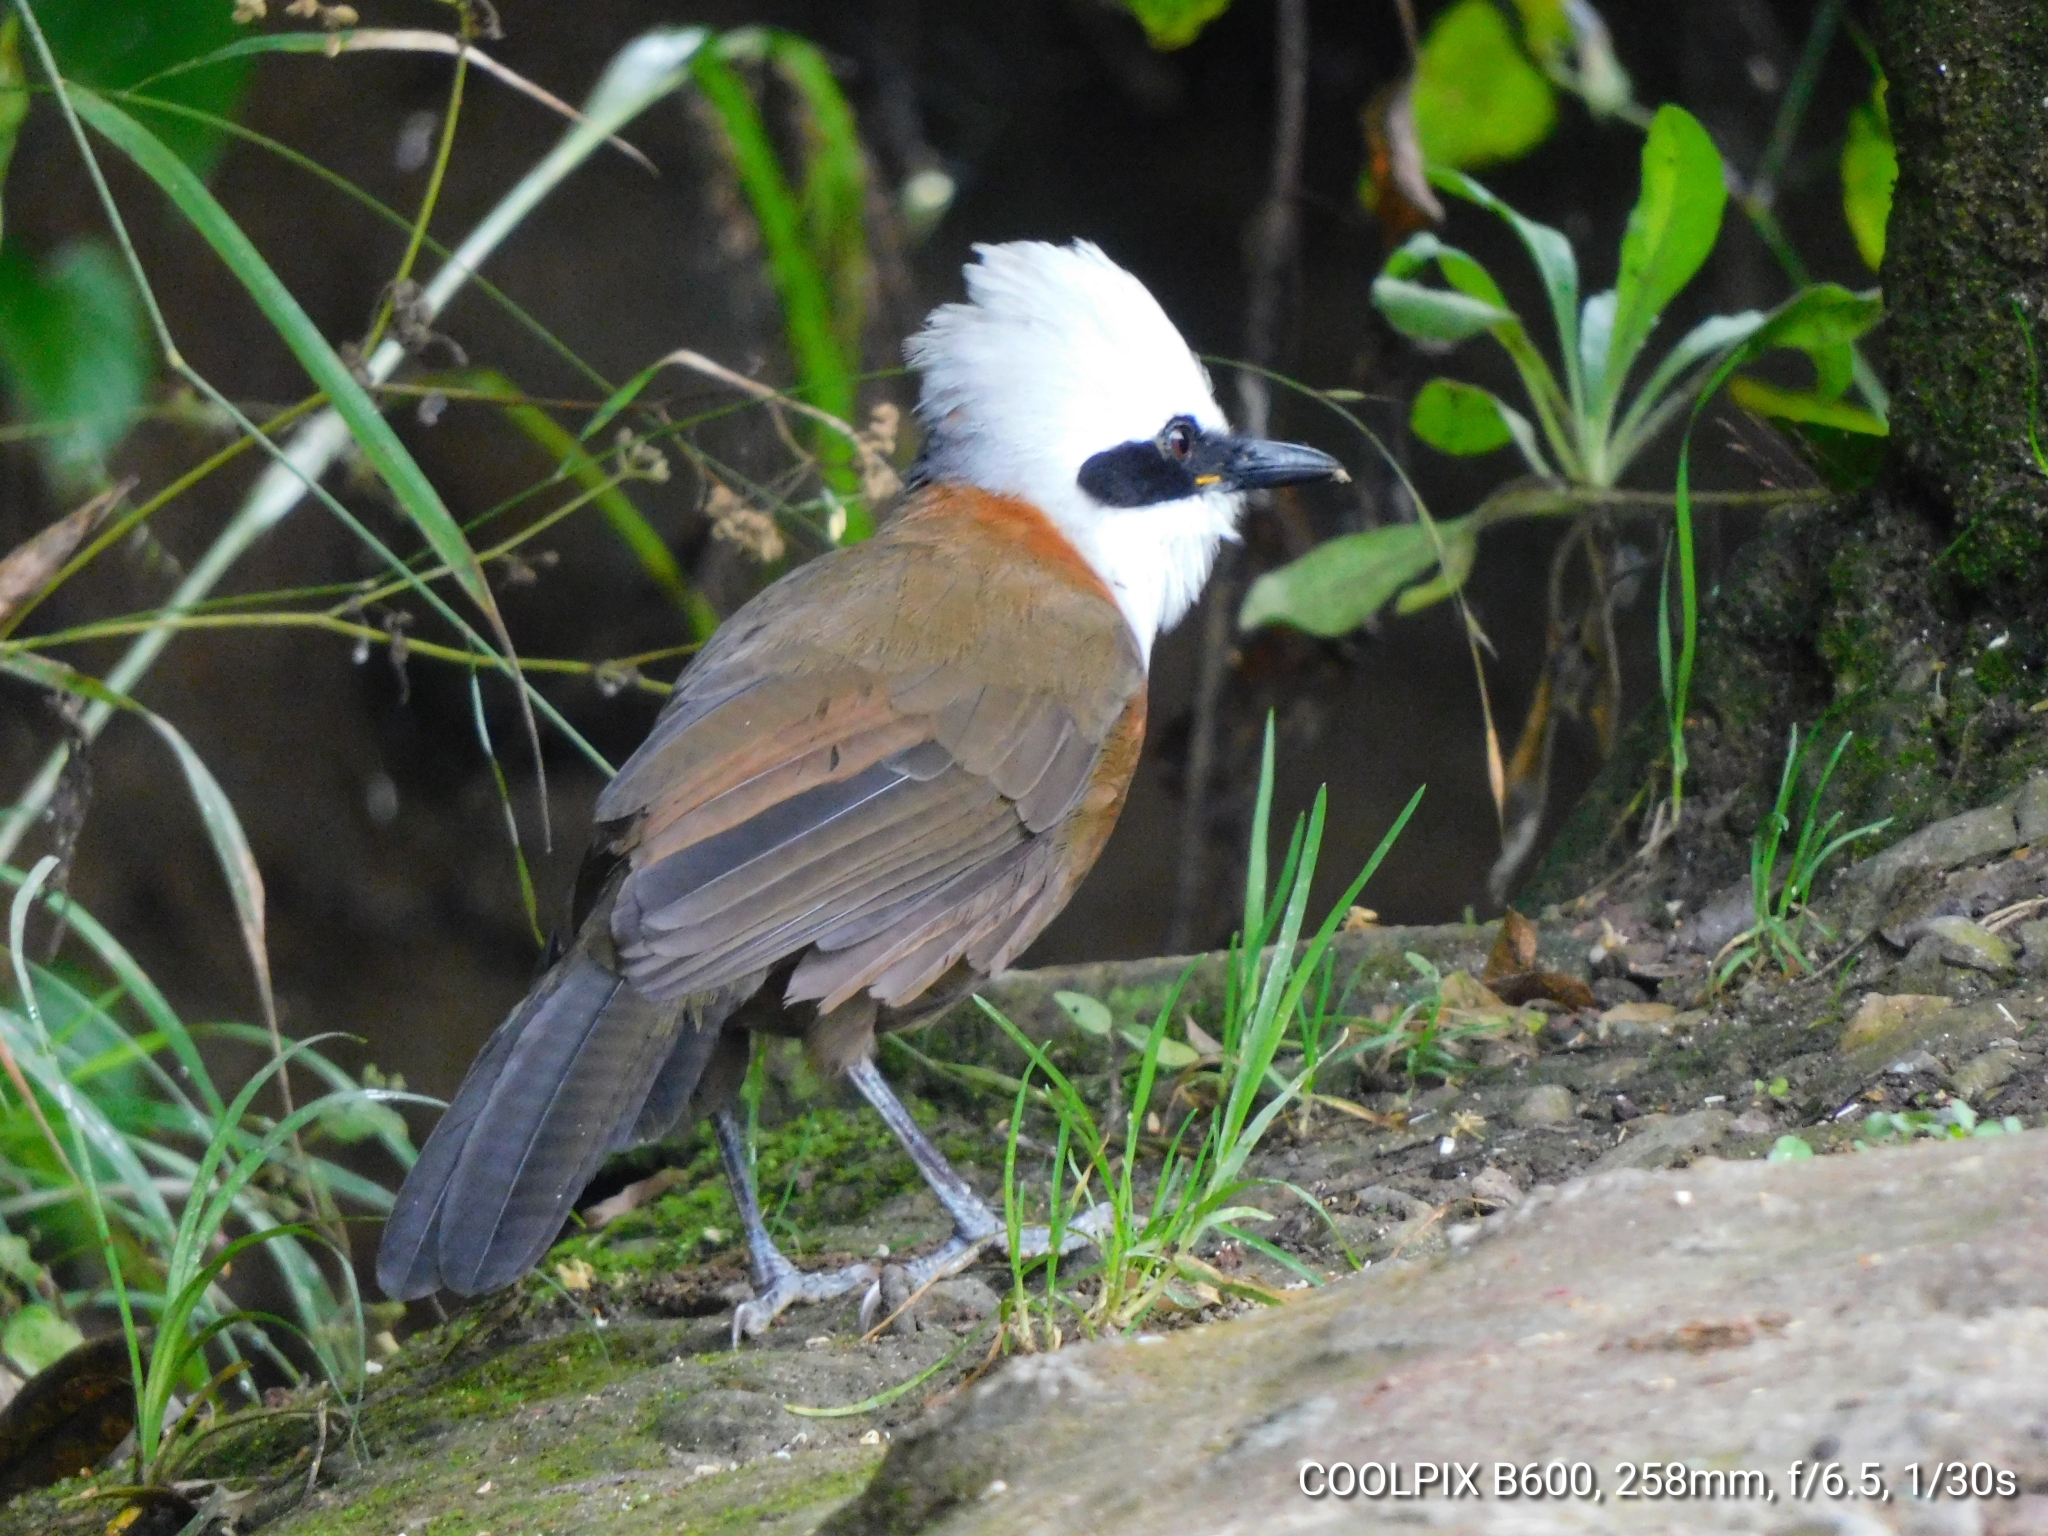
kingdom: Animalia
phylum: Chordata
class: Aves
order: Passeriformes
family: Leiothrichidae
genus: Garrulax
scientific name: Garrulax leucolophus
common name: White-crested laughingthrush
